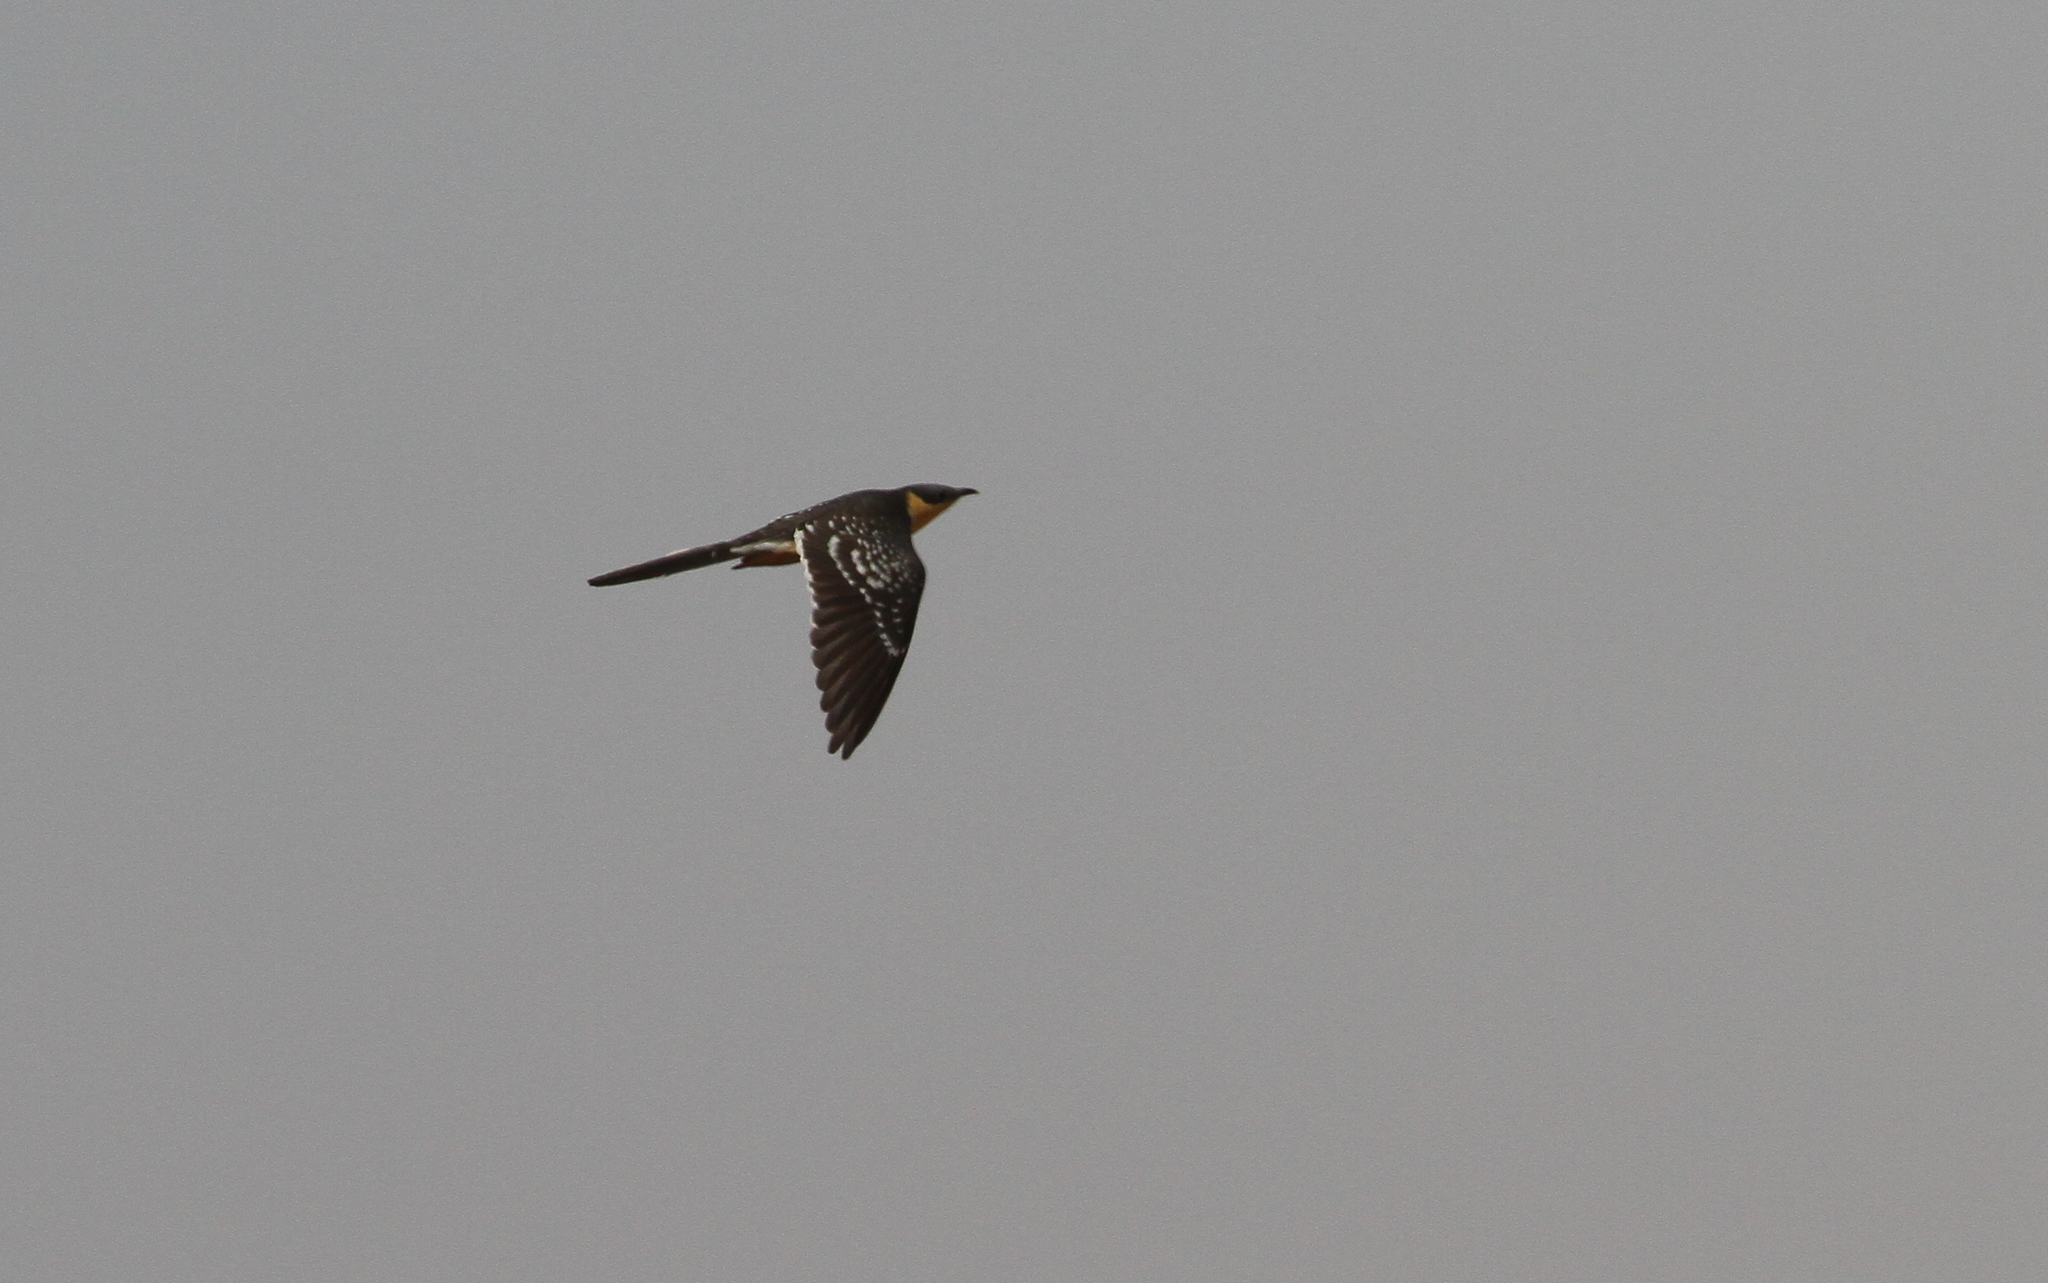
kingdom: Animalia
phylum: Chordata
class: Aves
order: Cuculiformes
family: Cuculidae
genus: Clamator
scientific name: Clamator glandarius
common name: Great spotted cuckoo
